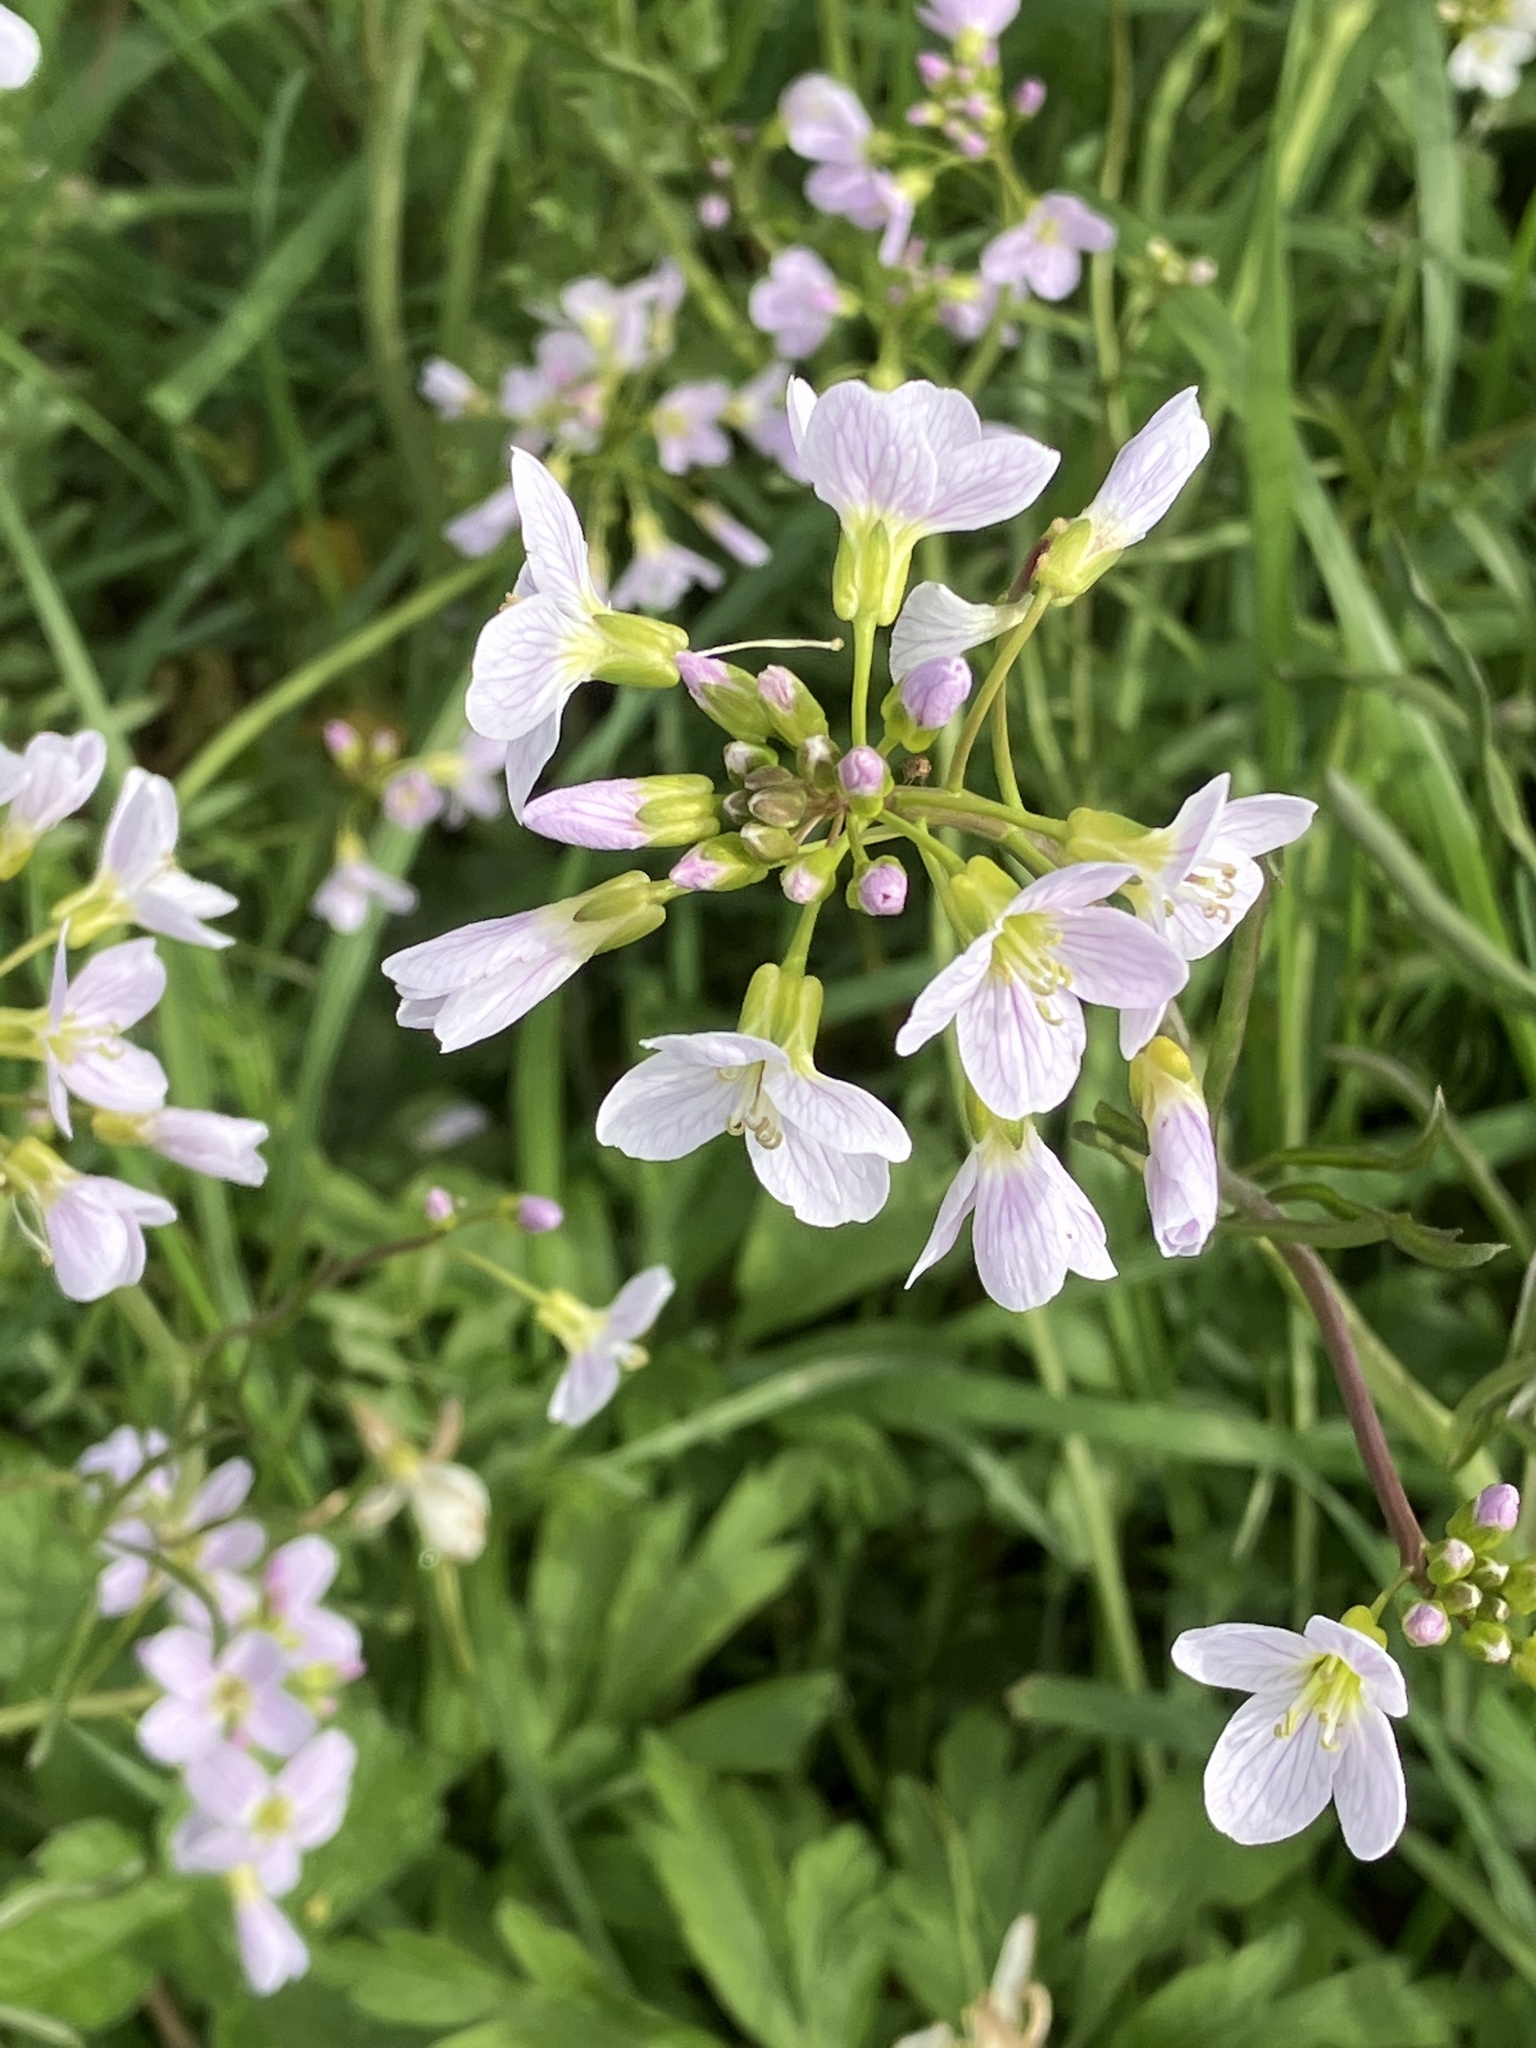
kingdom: Plantae
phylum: Tracheophyta
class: Magnoliopsida
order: Brassicales
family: Brassicaceae
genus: Cardamine
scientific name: Cardamine pratensis
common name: Cuckoo flower
